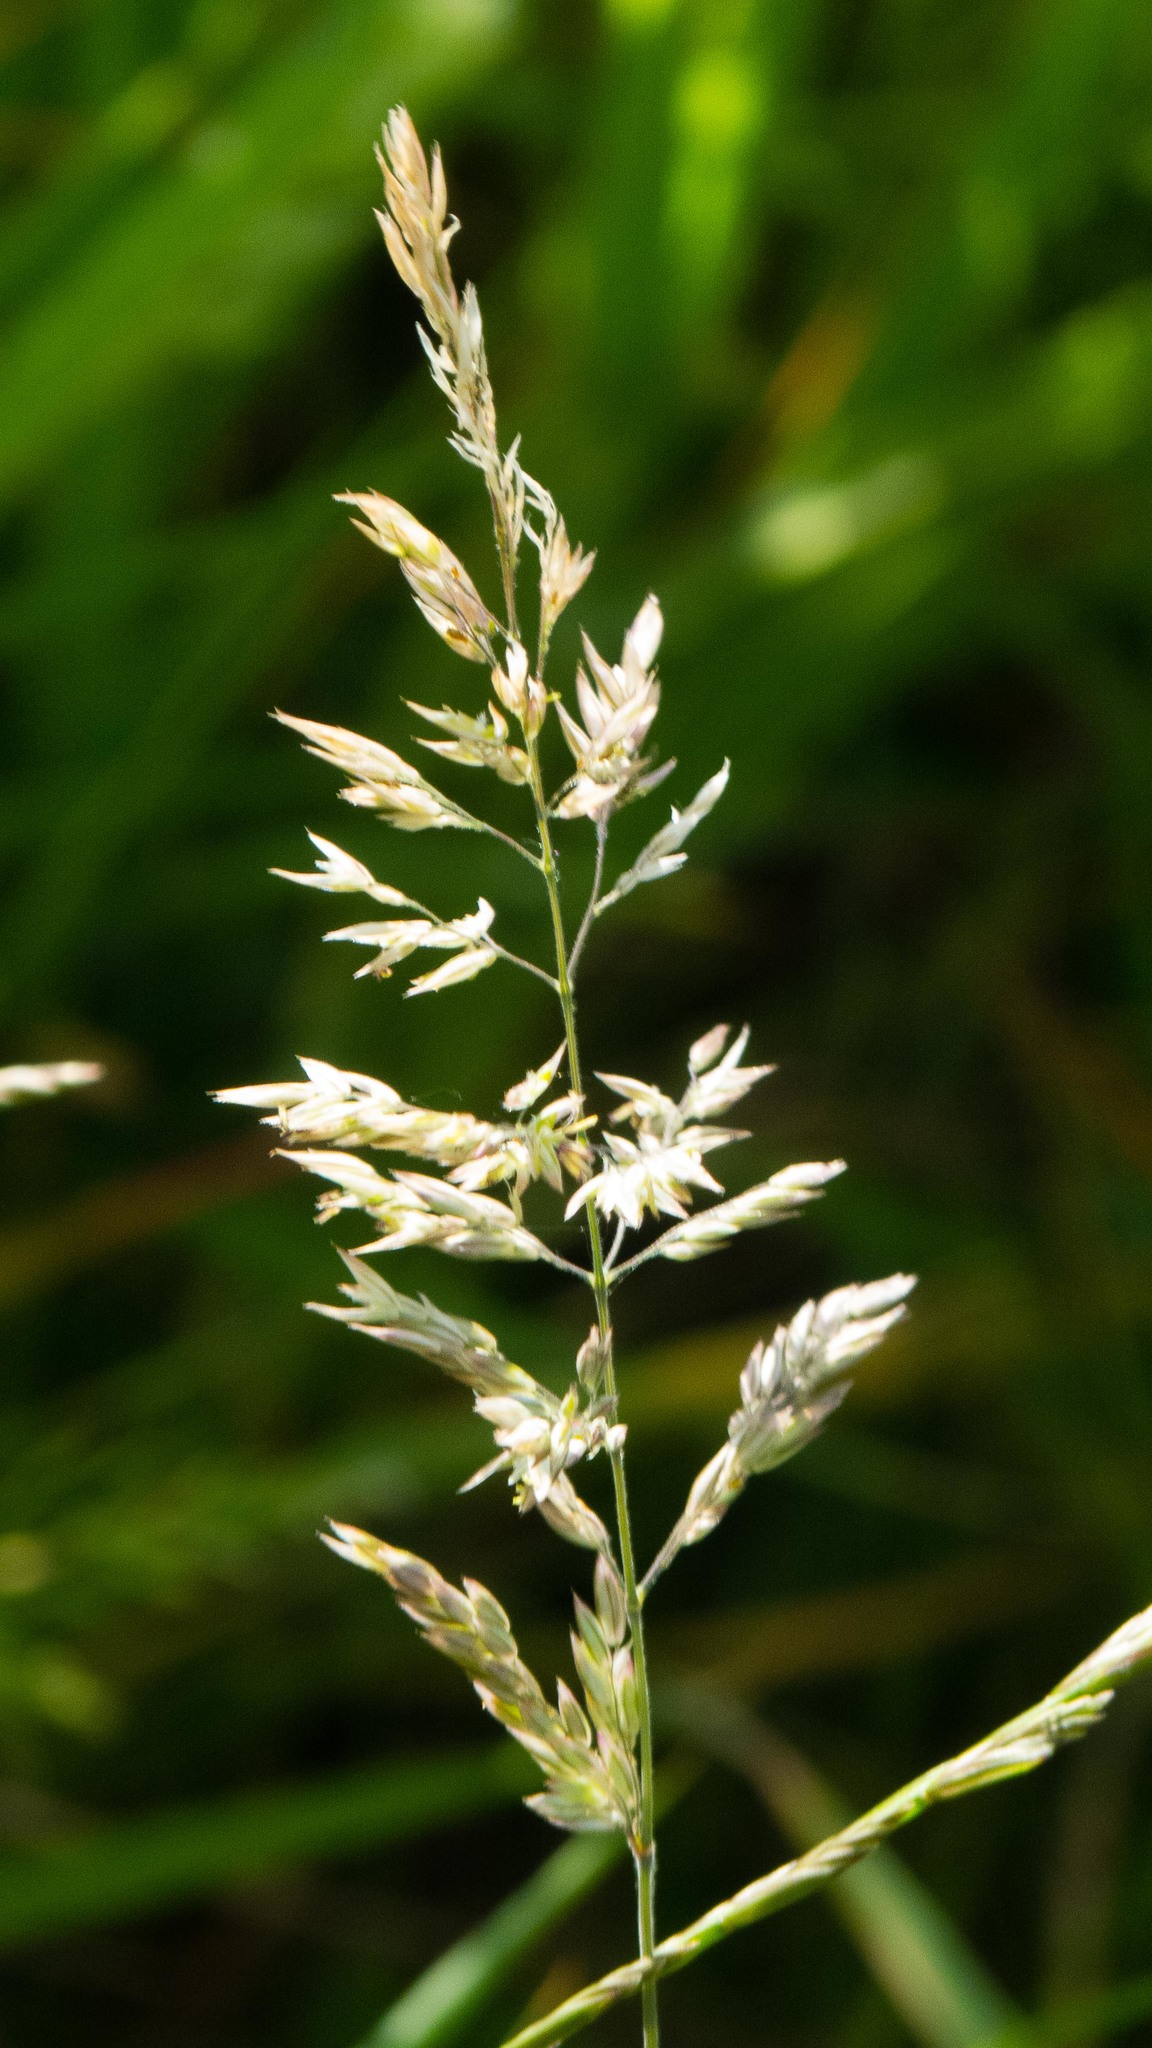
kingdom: Plantae
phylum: Tracheophyta
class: Liliopsida
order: Poales
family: Poaceae
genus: Holcus
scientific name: Holcus lanatus
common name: Yorkshire-fog
